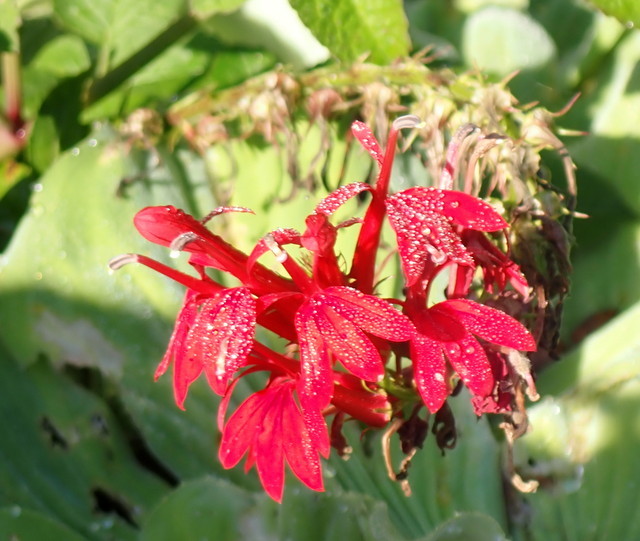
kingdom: Plantae
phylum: Tracheophyta
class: Magnoliopsida
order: Asterales
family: Campanulaceae
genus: Lobelia
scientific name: Lobelia cardinalis
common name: Cardinal flower
